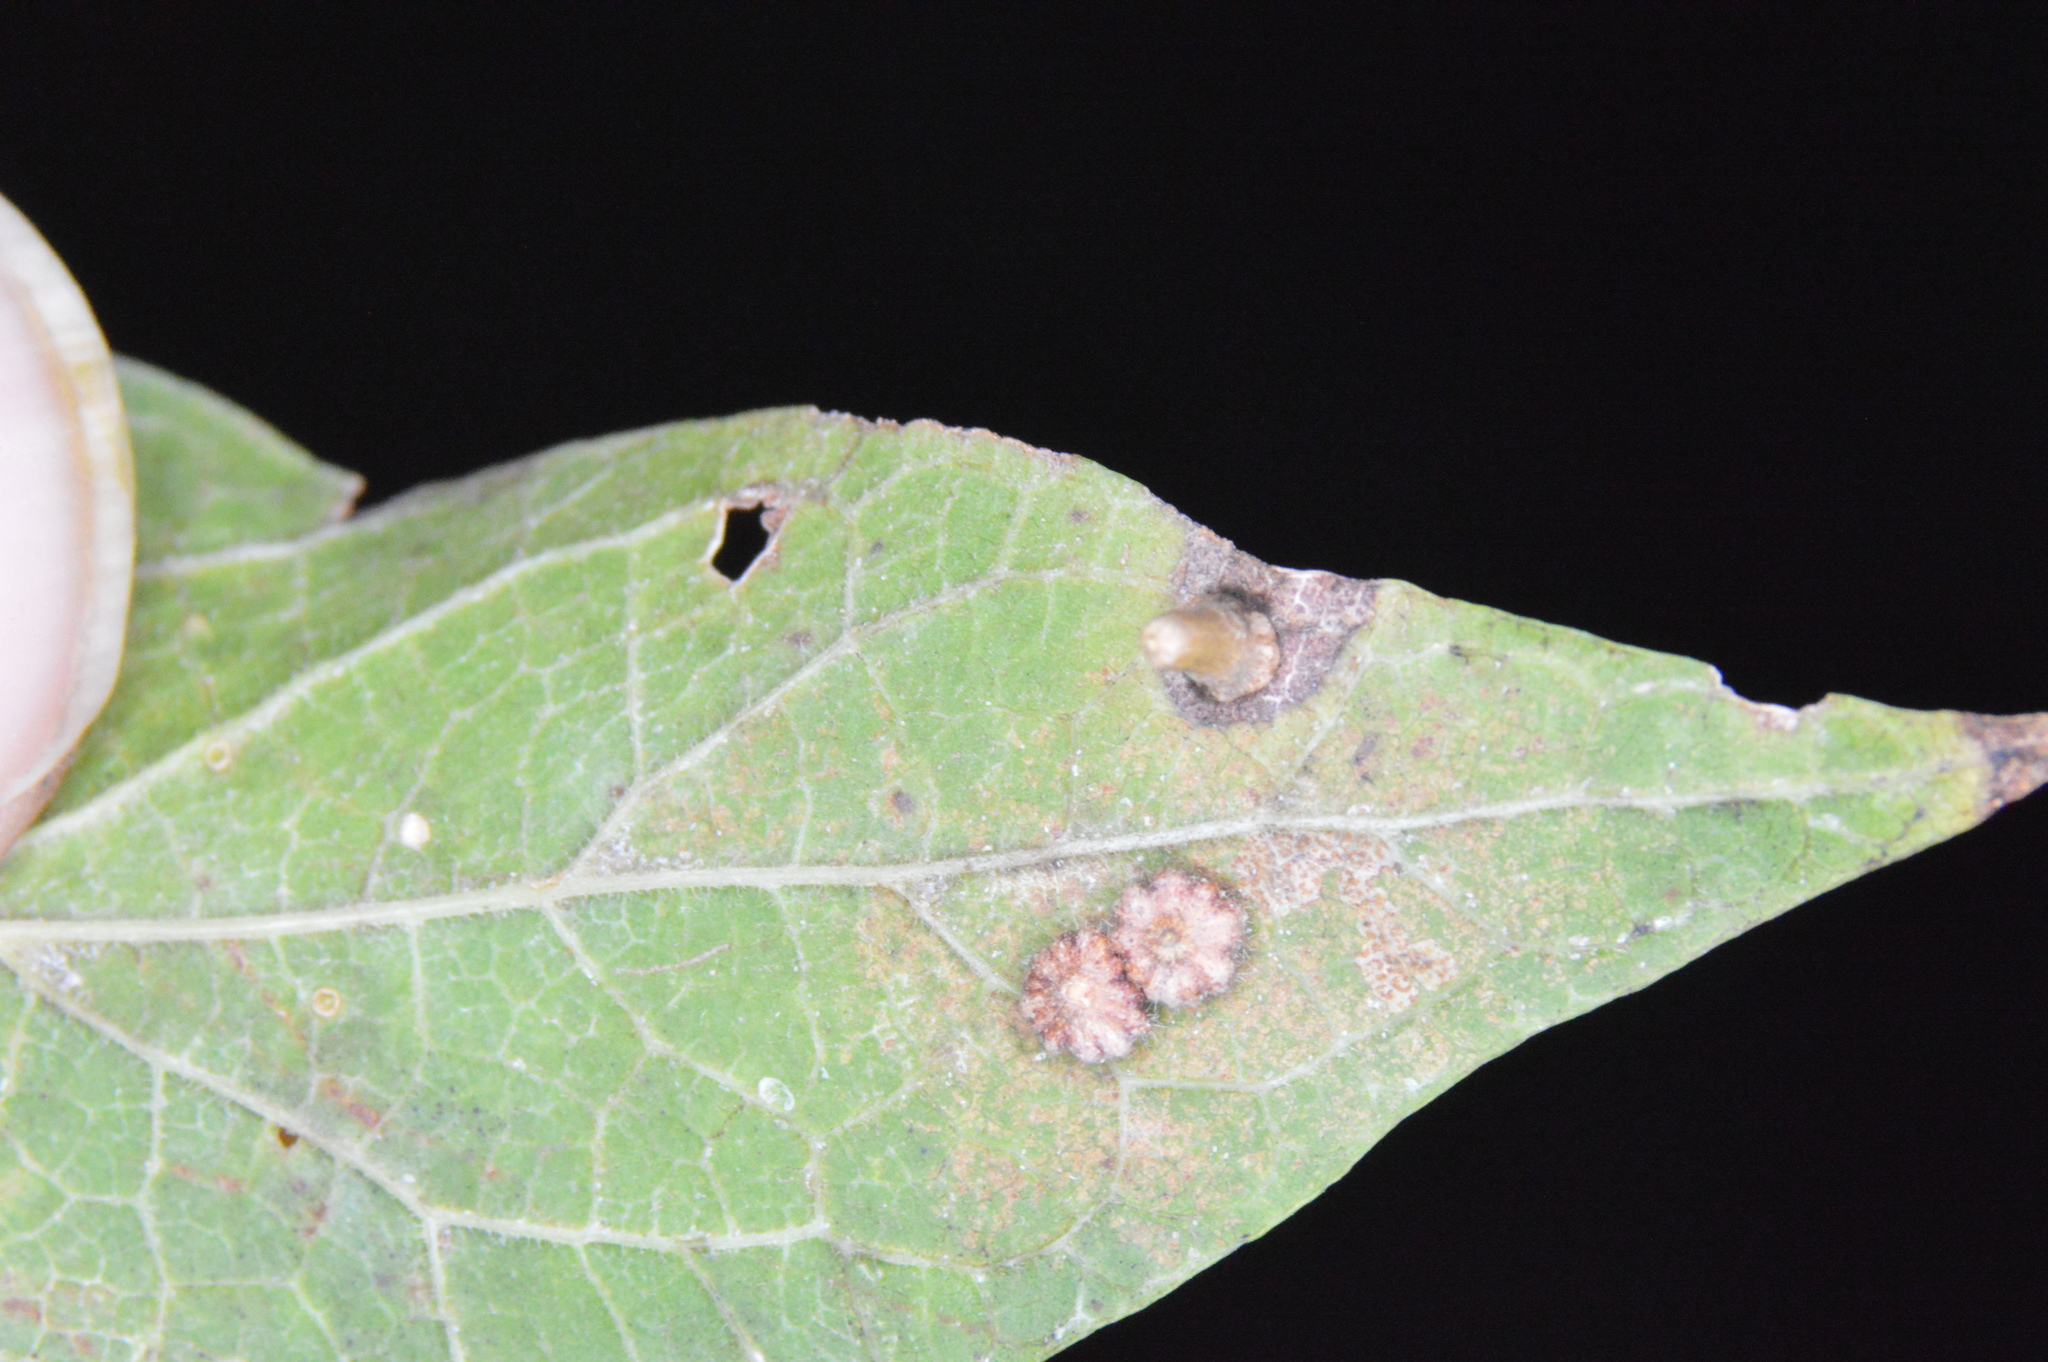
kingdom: Animalia
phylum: Arthropoda
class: Insecta
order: Diptera
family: Cecidomyiidae
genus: Celticecis
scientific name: Celticecis capsularis
